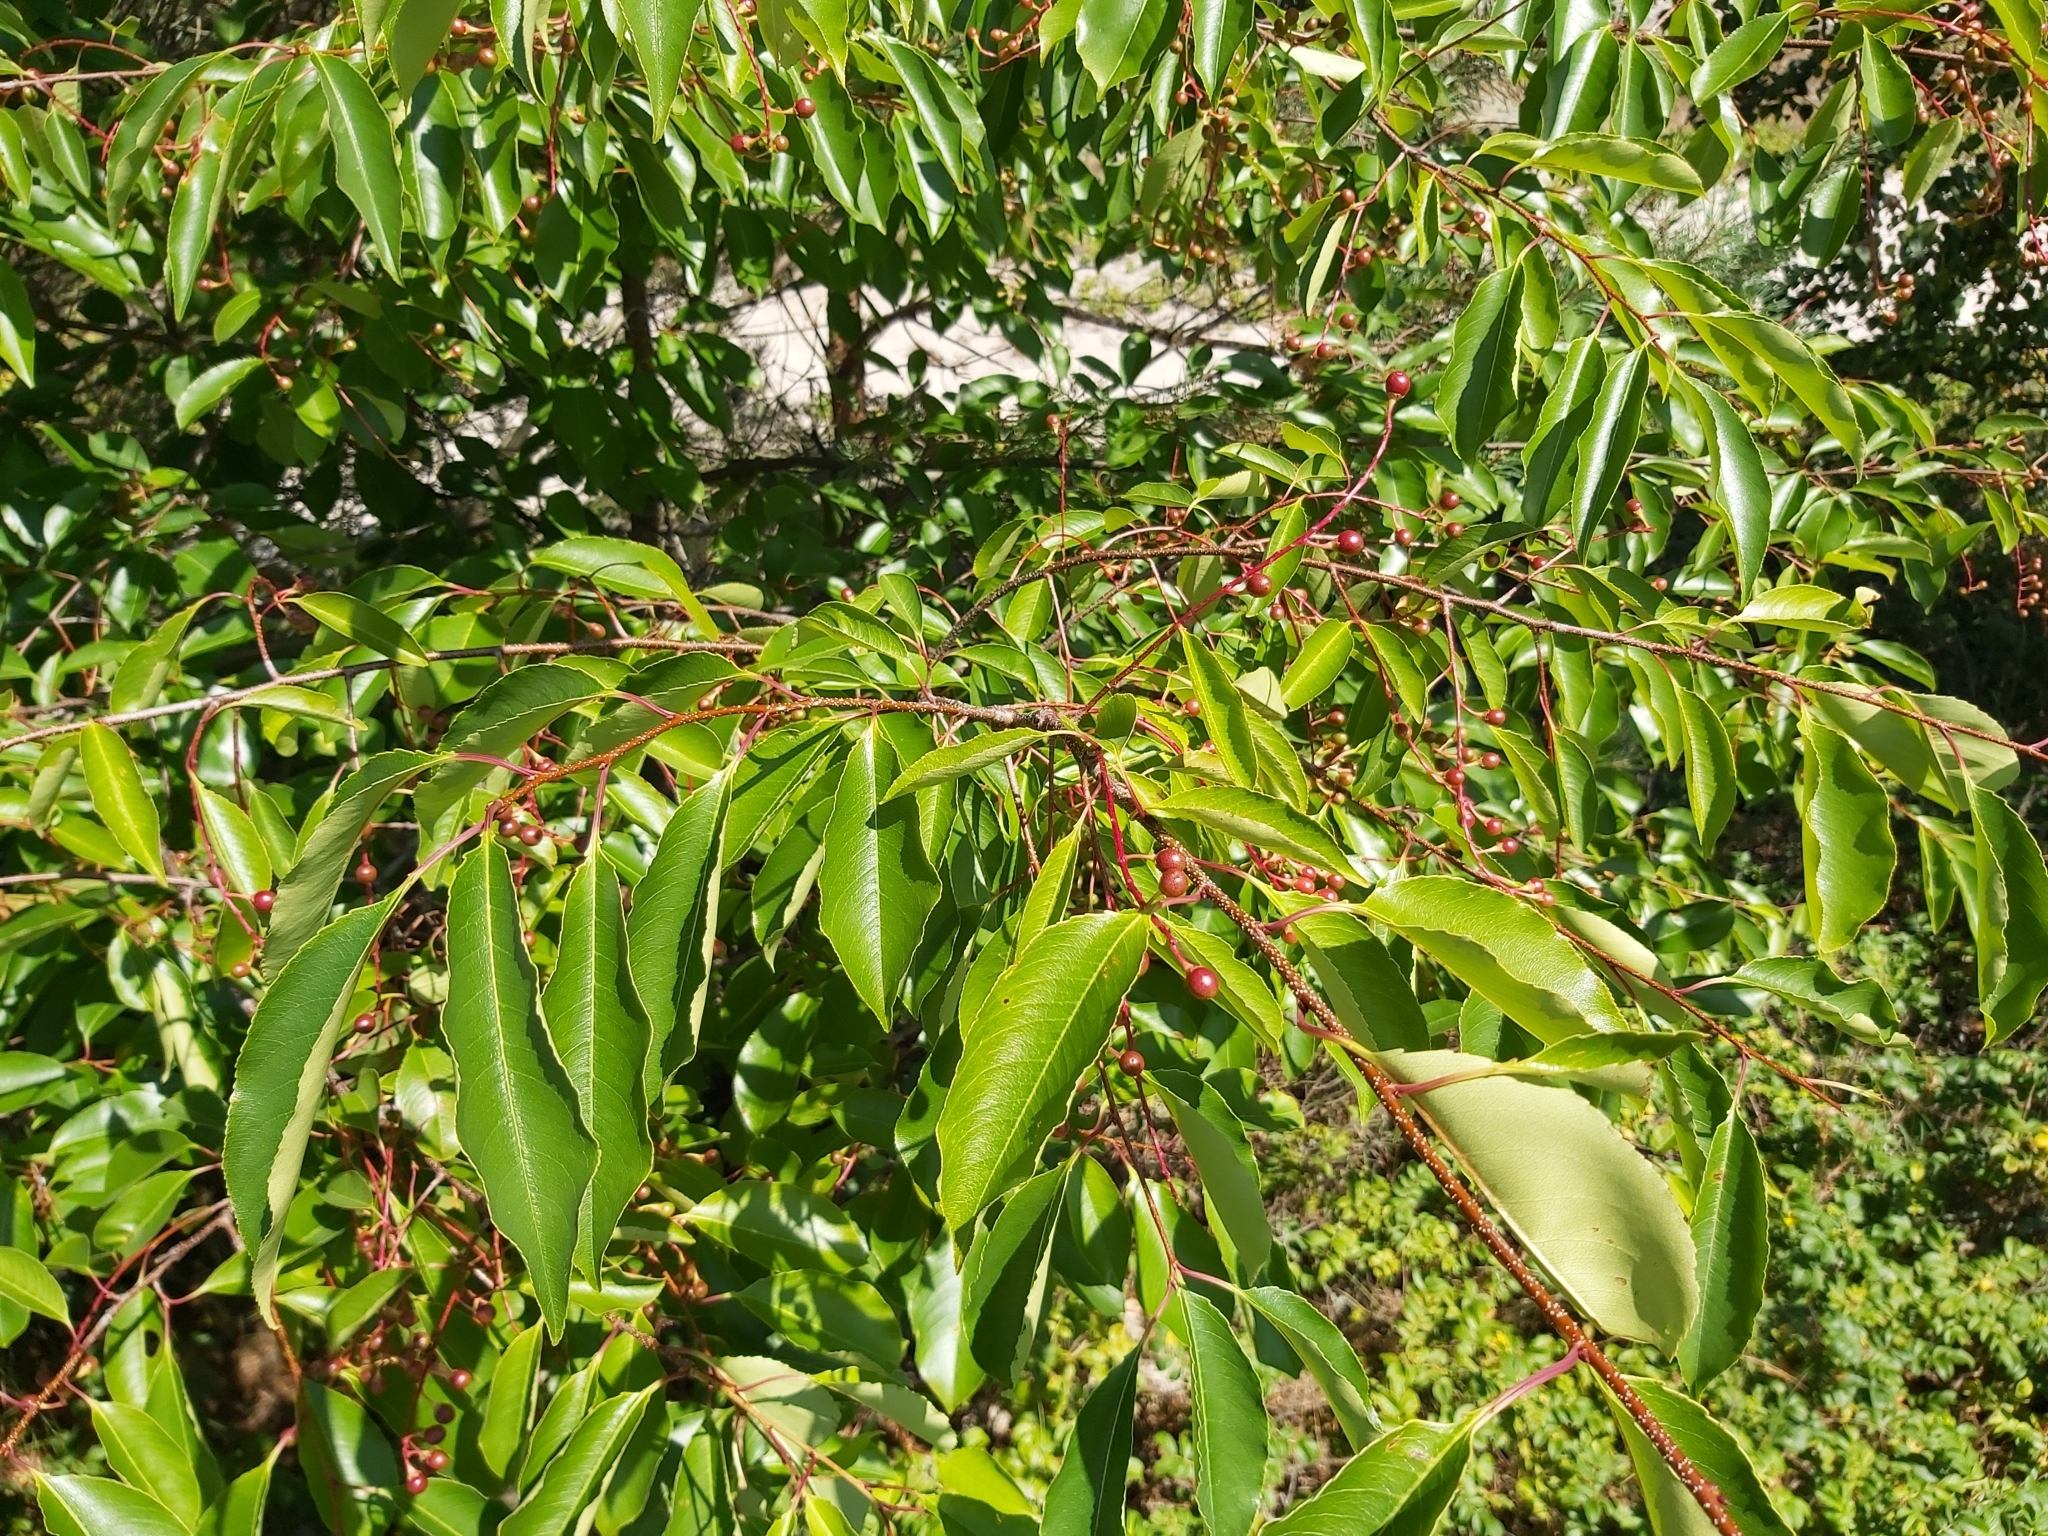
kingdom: Plantae
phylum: Tracheophyta
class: Magnoliopsida
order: Rosales
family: Rosaceae
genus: Prunus
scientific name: Prunus serotina
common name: Black cherry
